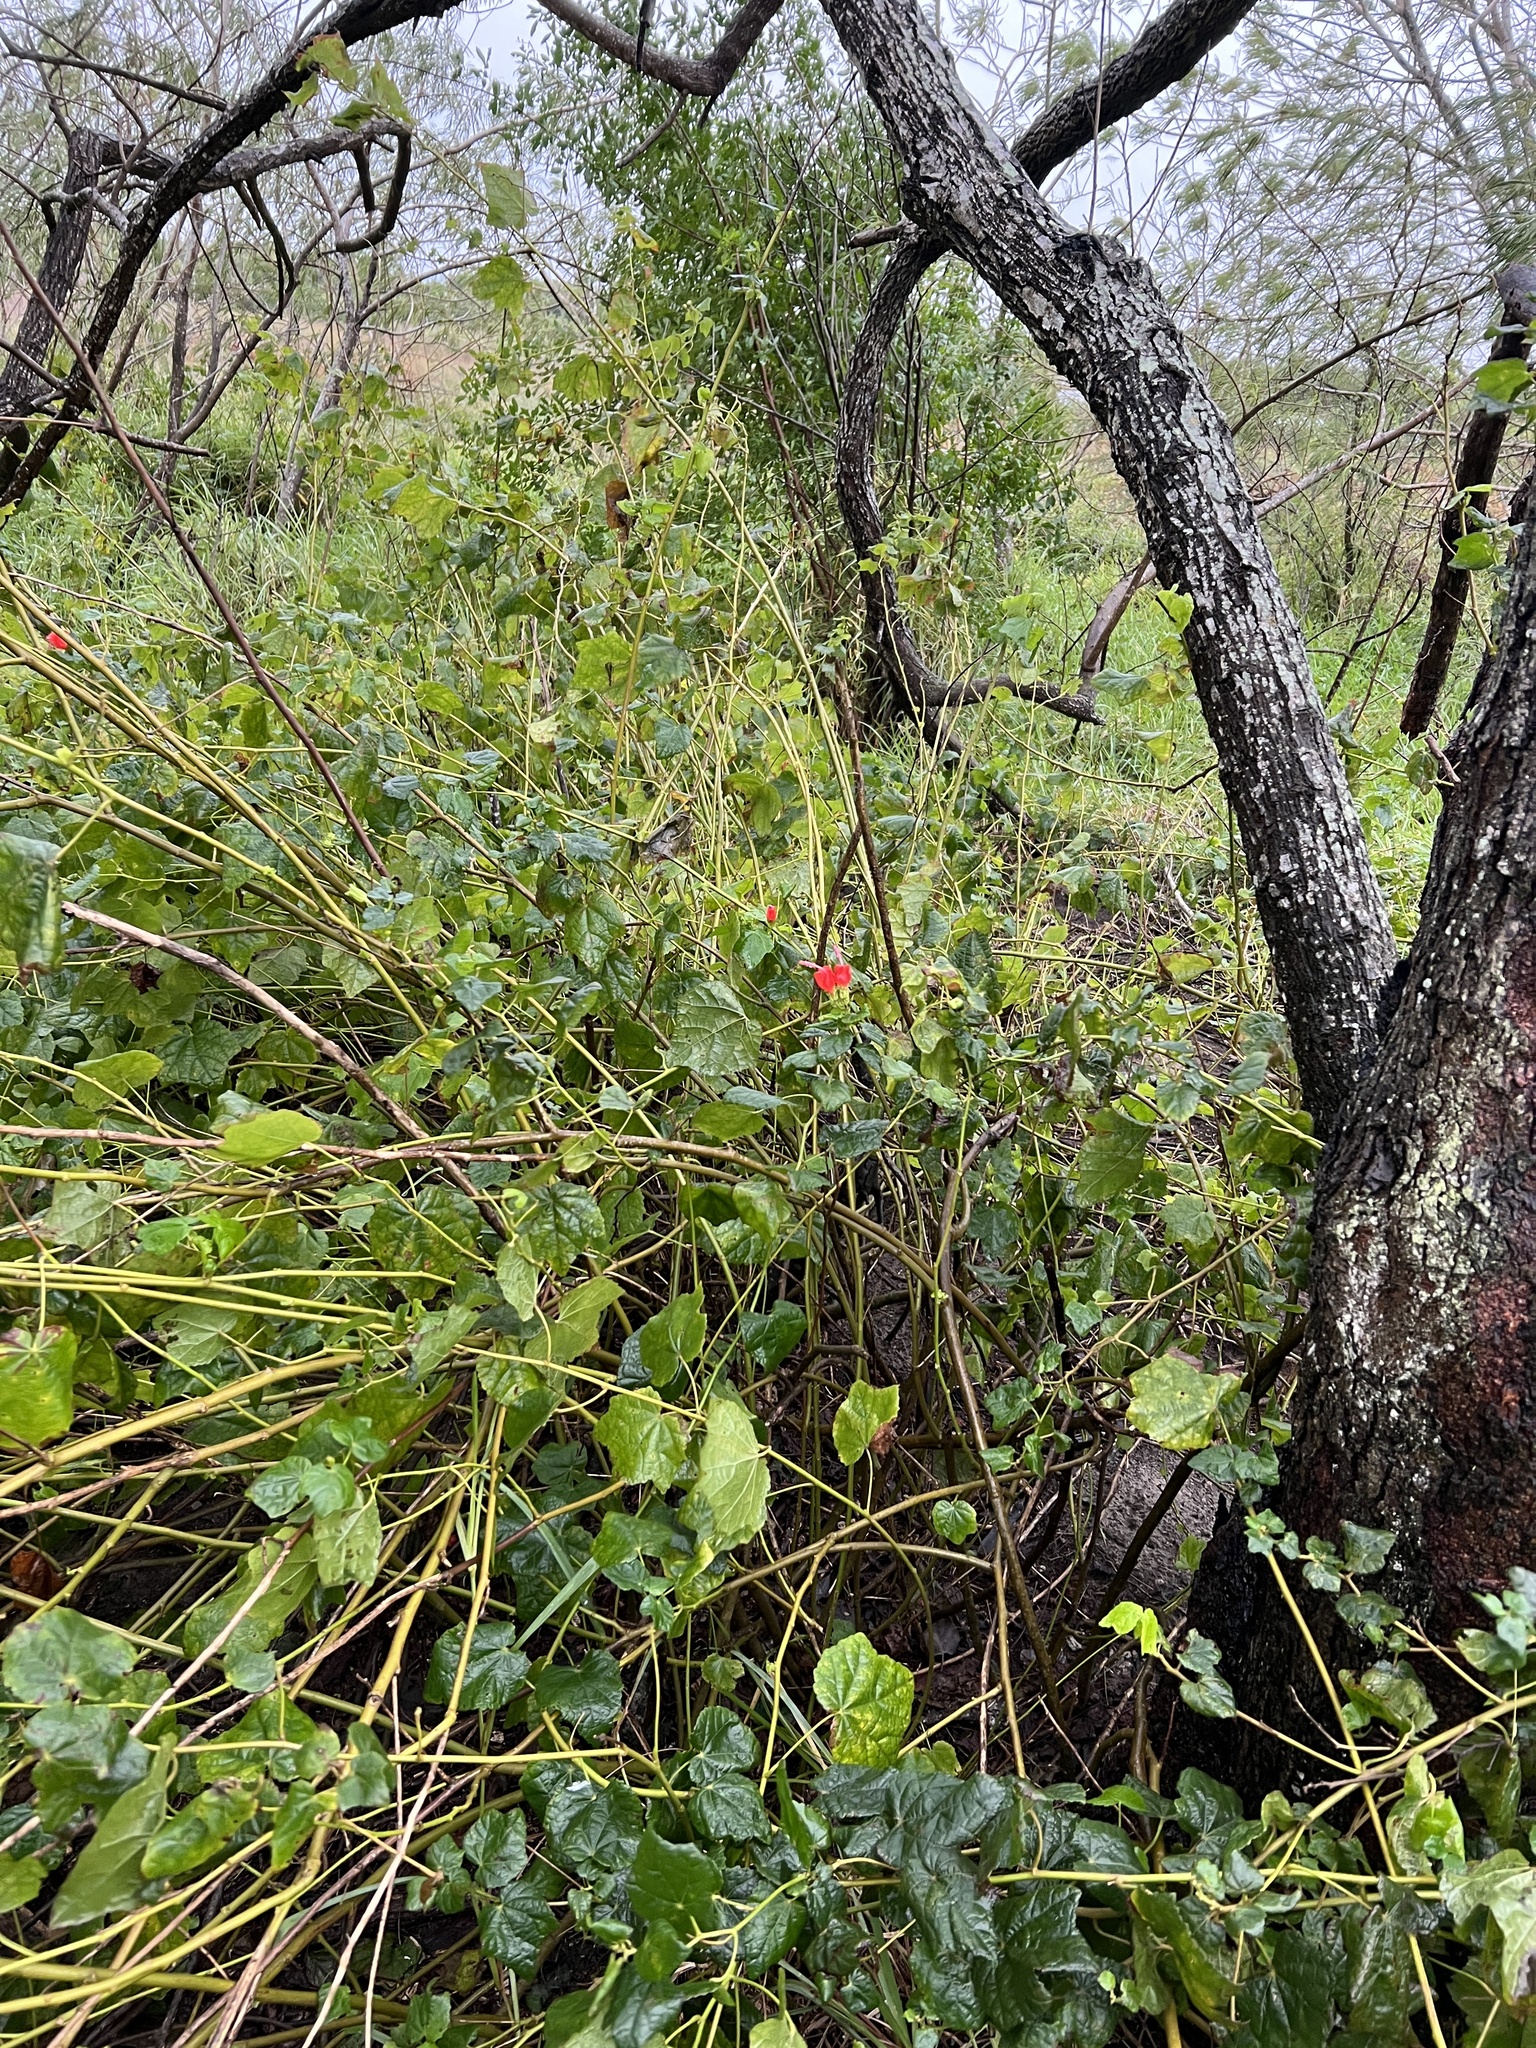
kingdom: Plantae
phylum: Tracheophyta
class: Magnoliopsida
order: Malvales
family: Malvaceae
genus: Malvaviscus
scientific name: Malvaviscus arboreus
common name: Wax mallow
